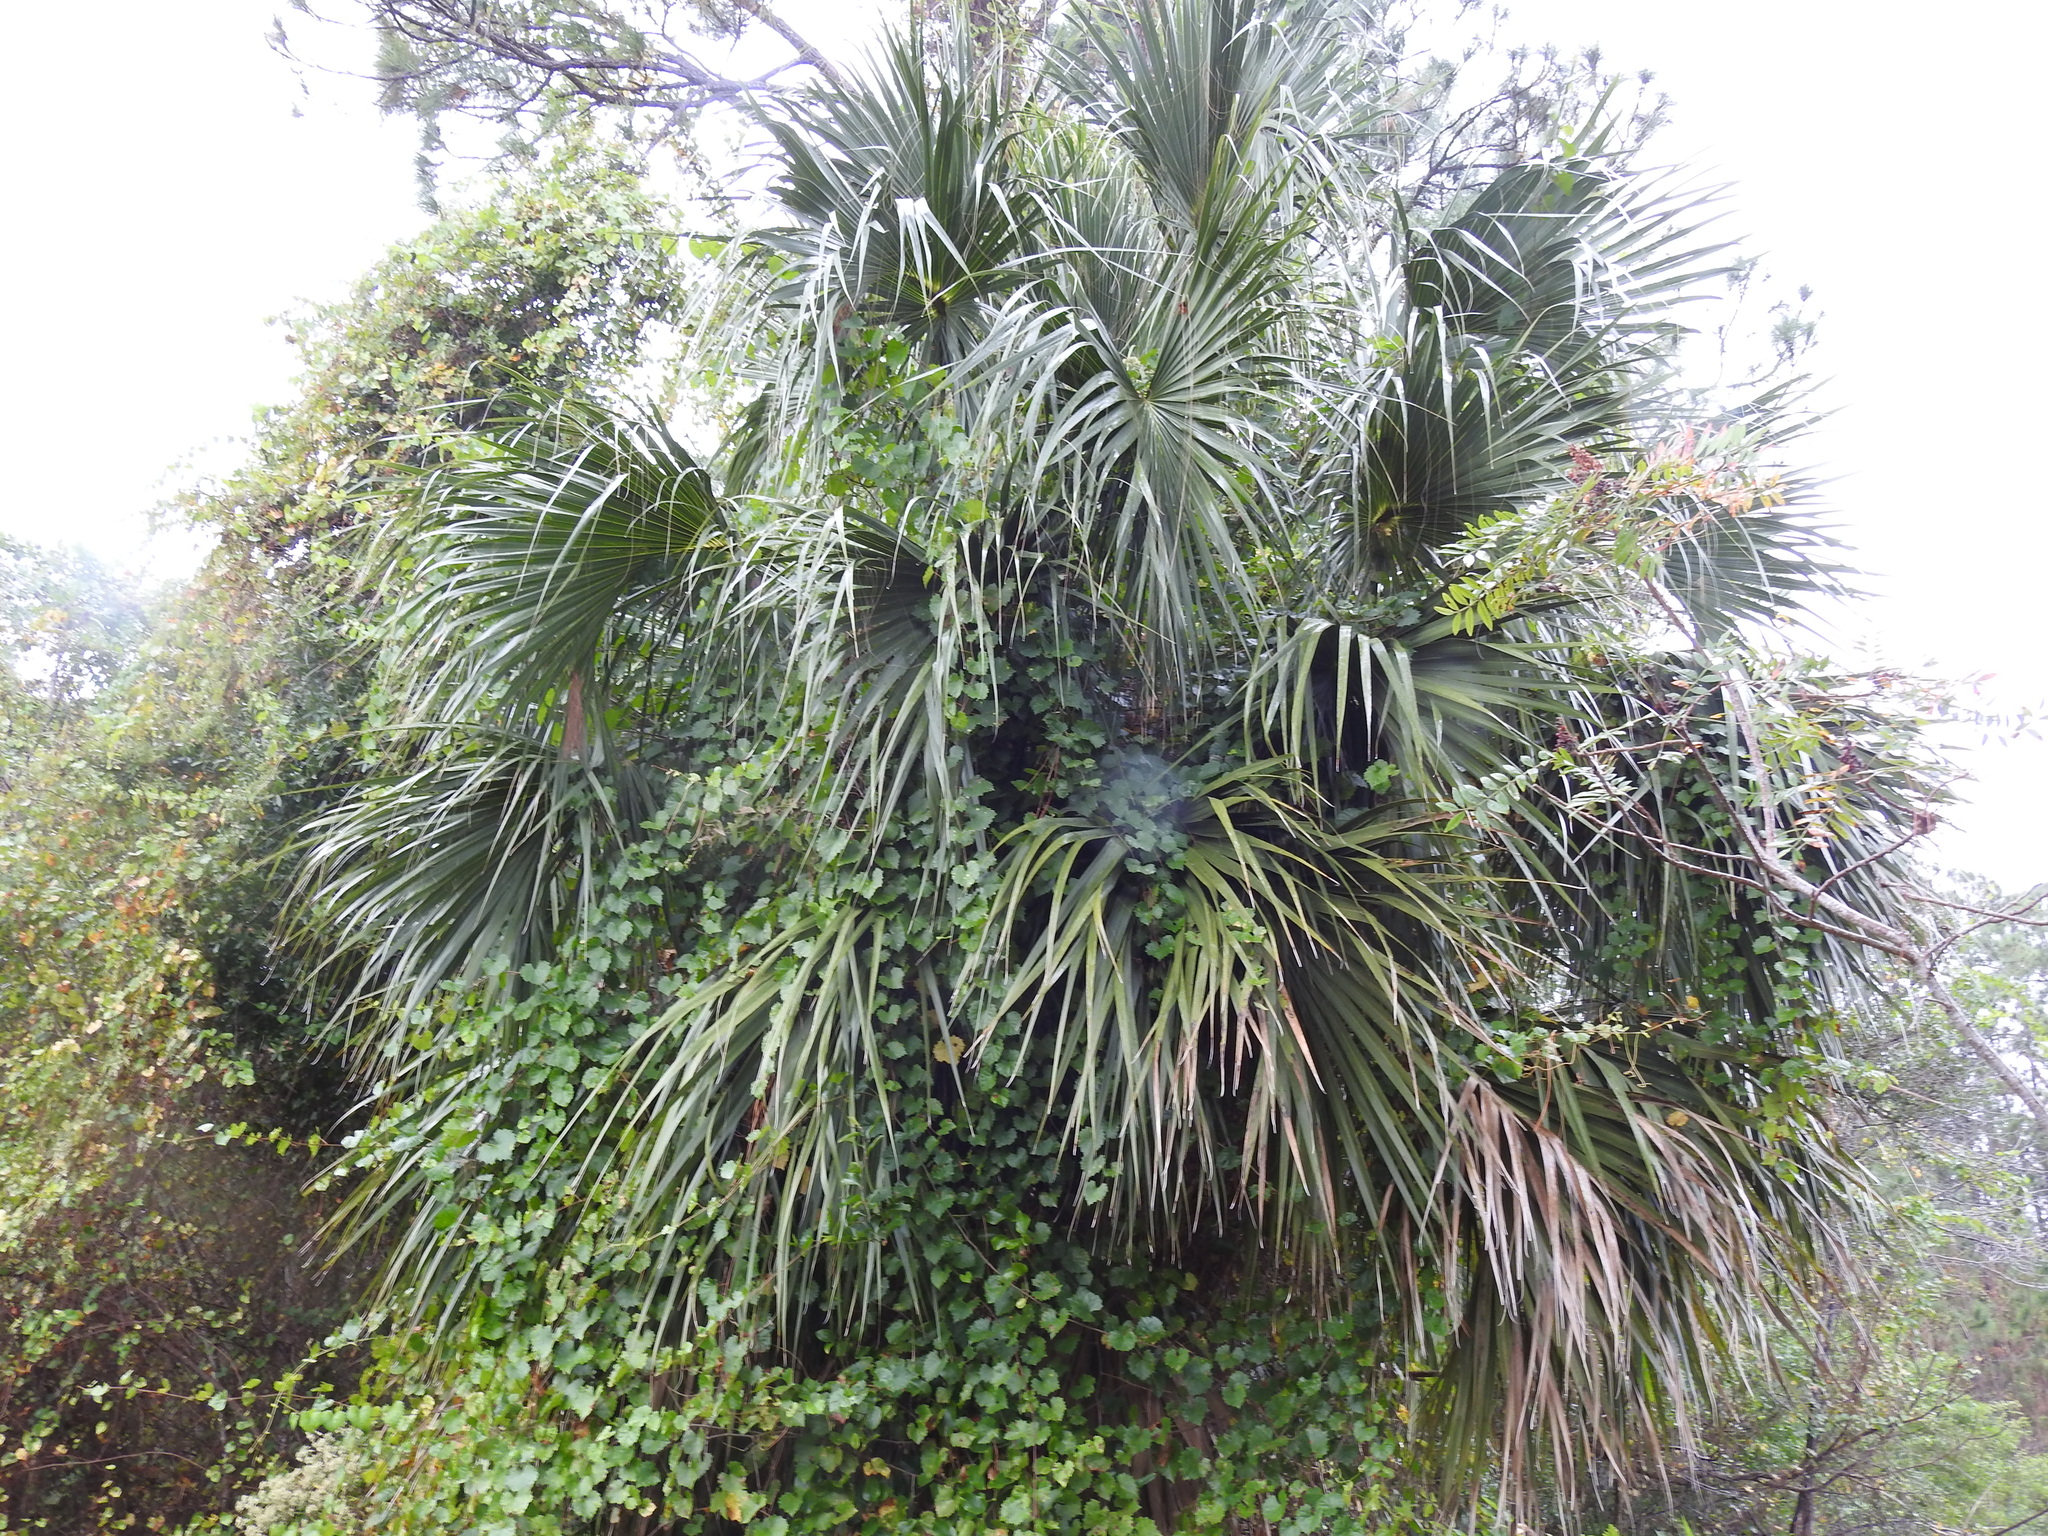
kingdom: Plantae
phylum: Tracheophyta
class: Liliopsida
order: Arecales
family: Arecaceae
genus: Sabal
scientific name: Sabal palmetto
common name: Blue palmetto
